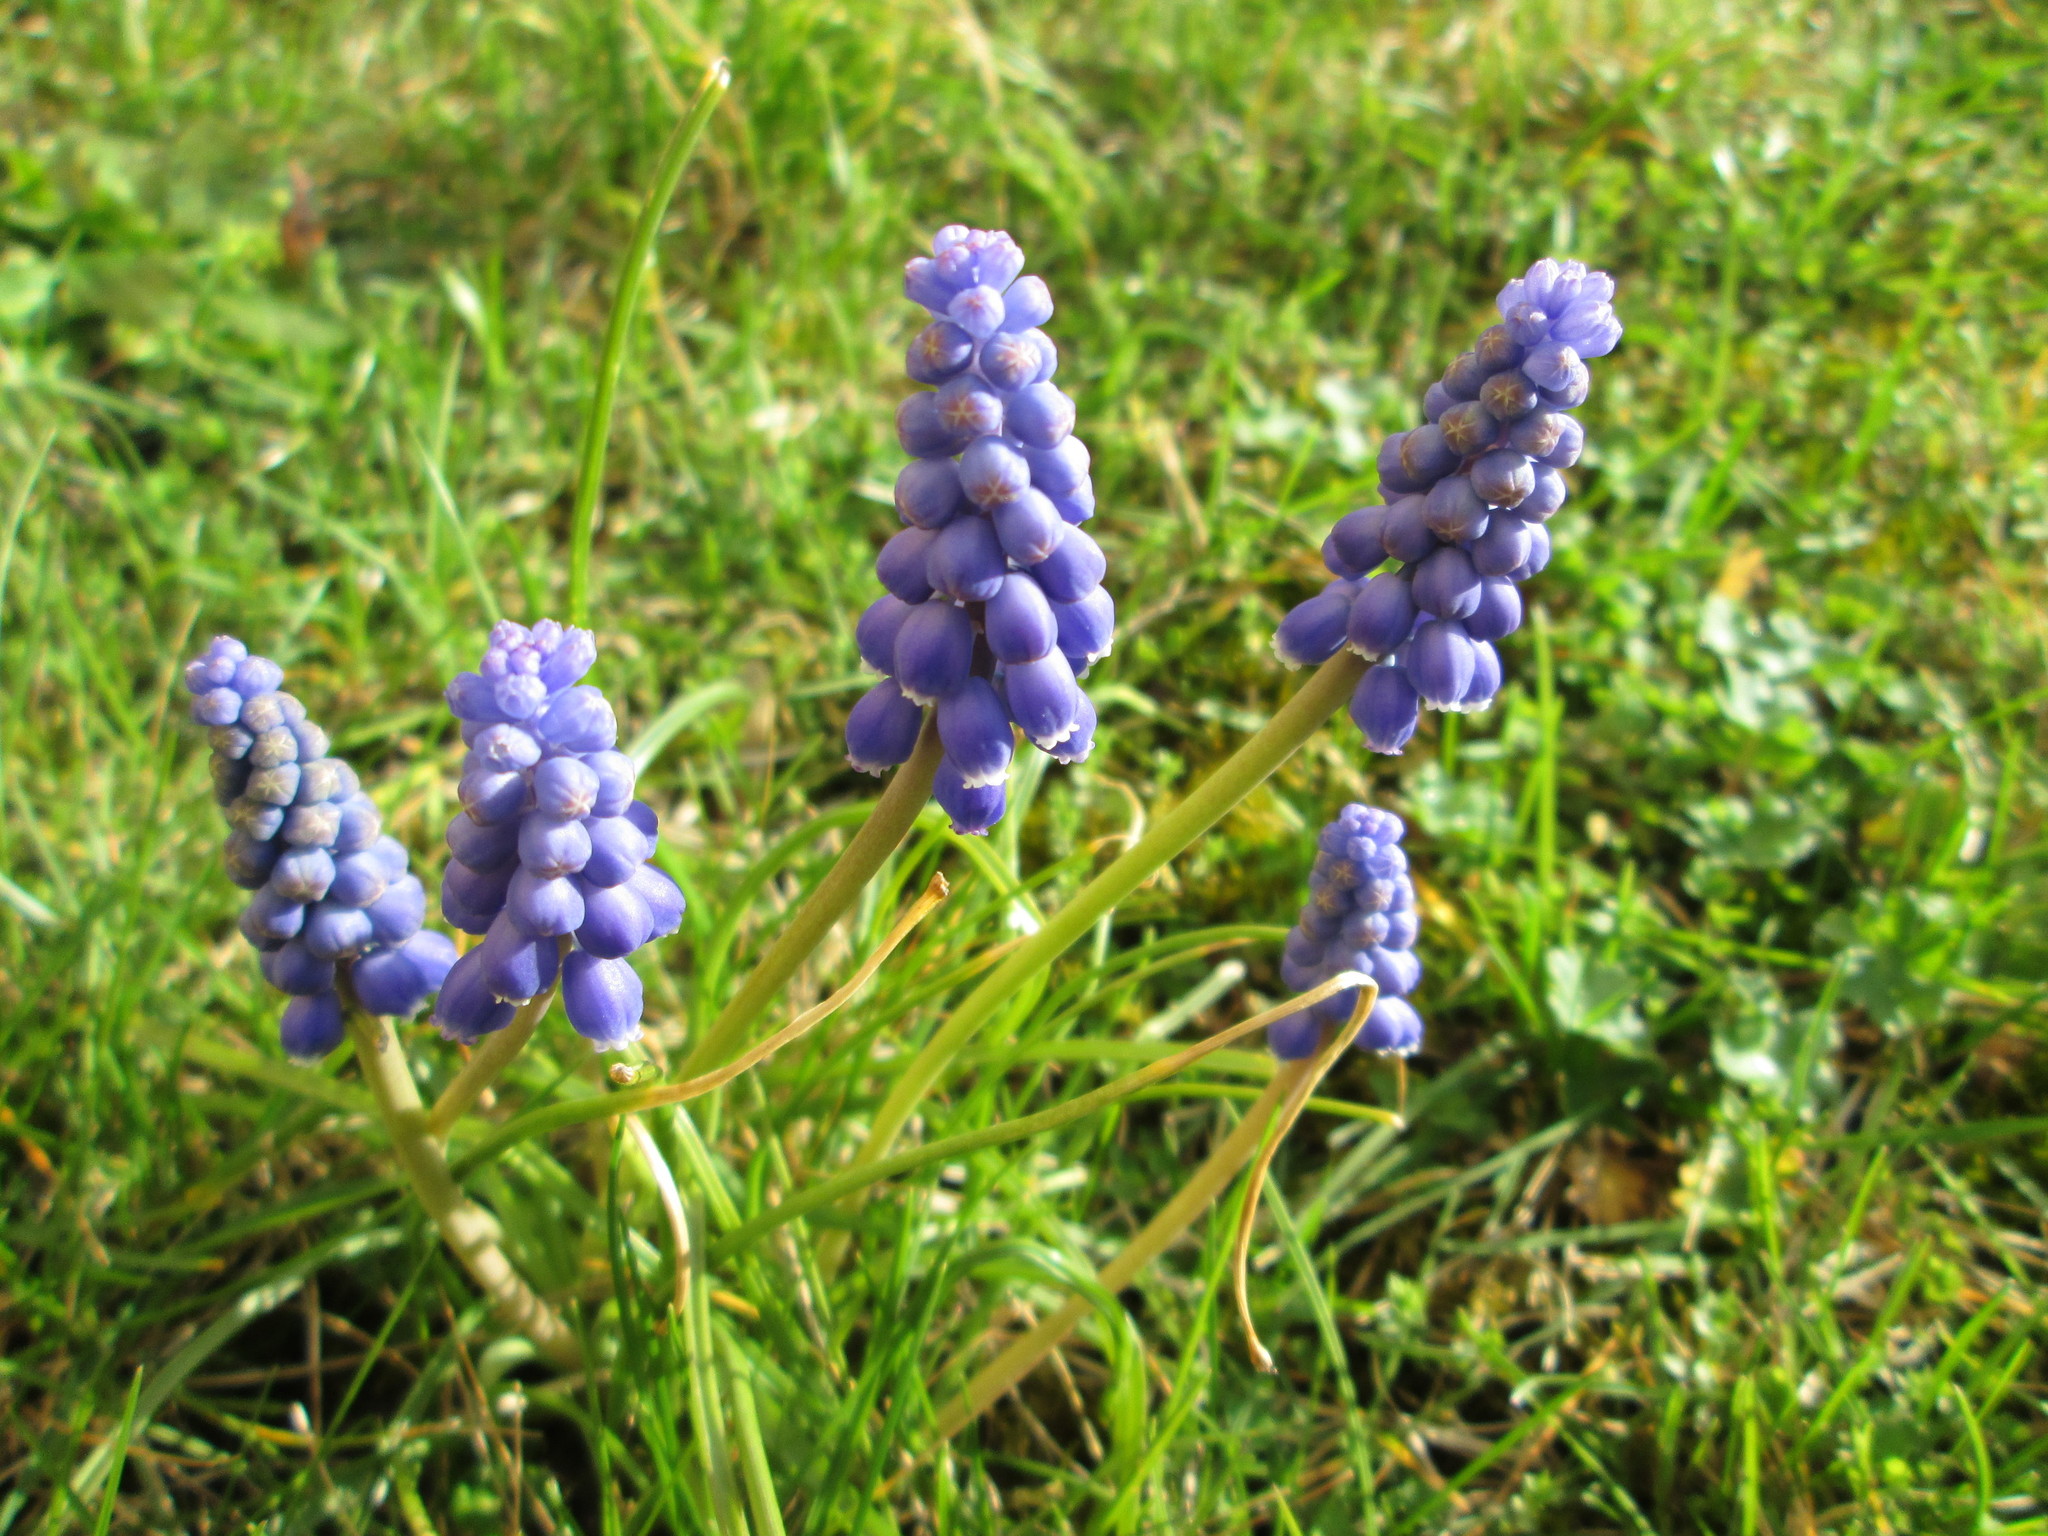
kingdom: Plantae
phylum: Tracheophyta
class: Liliopsida
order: Asparagales
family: Asparagaceae
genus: Muscari
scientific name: Muscari armeniacum
